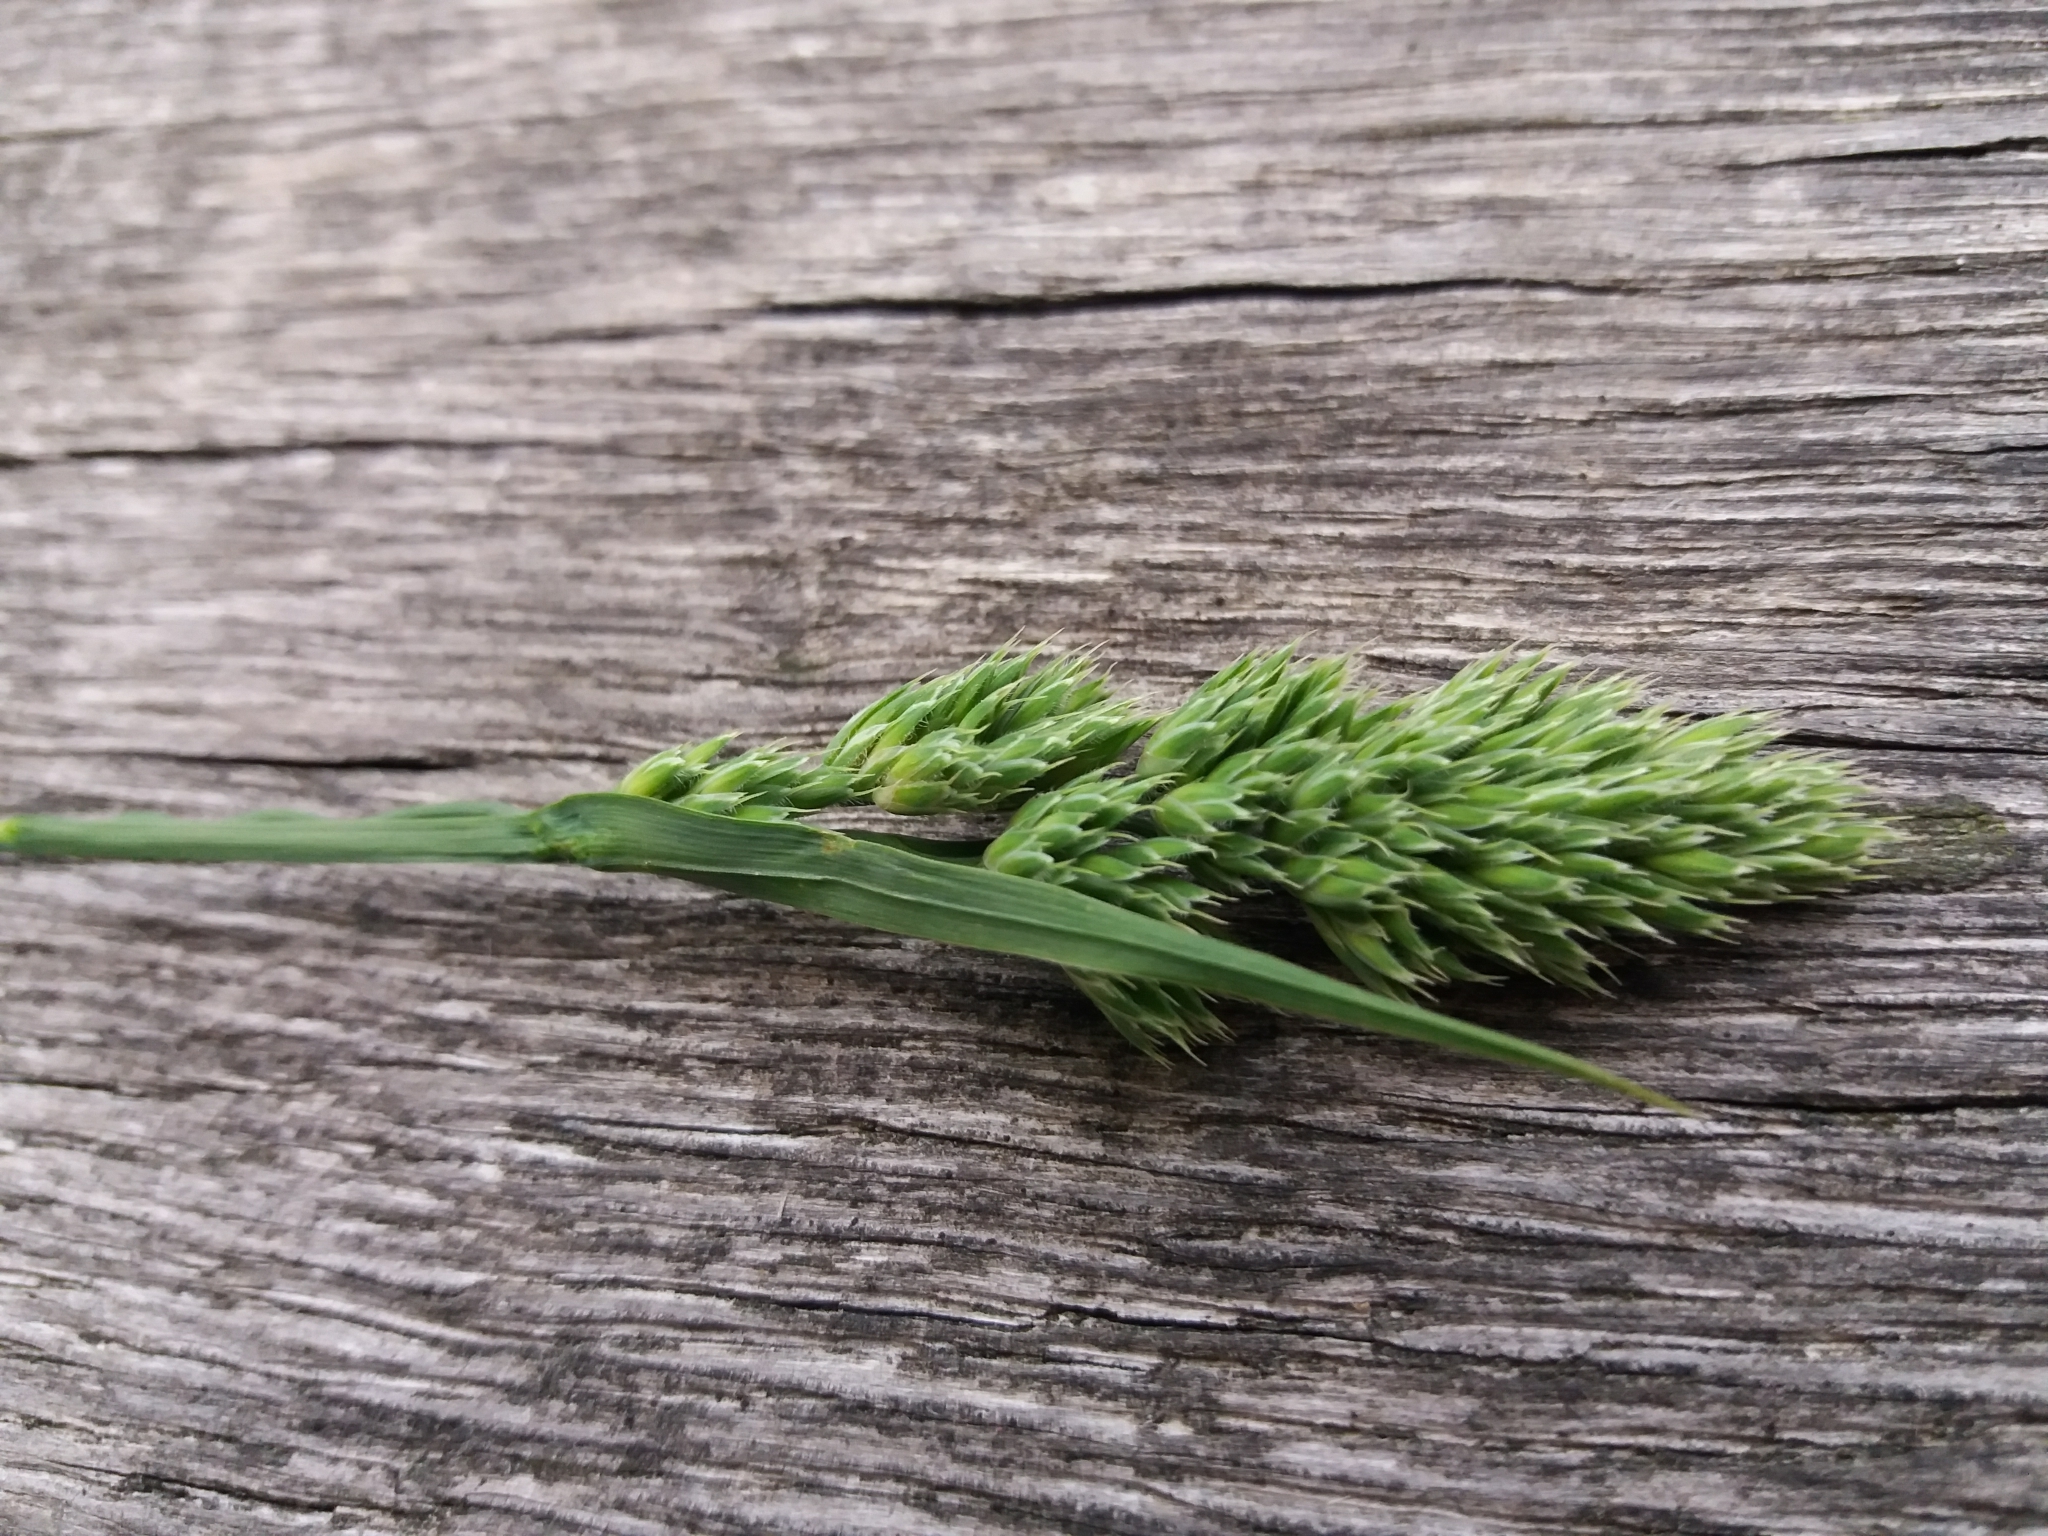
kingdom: Plantae
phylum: Tracheophyta
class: Liliopsida
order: Poales
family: Poaceae
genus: Dactylis
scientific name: Dactylis glomerata
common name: Orchardgrass
